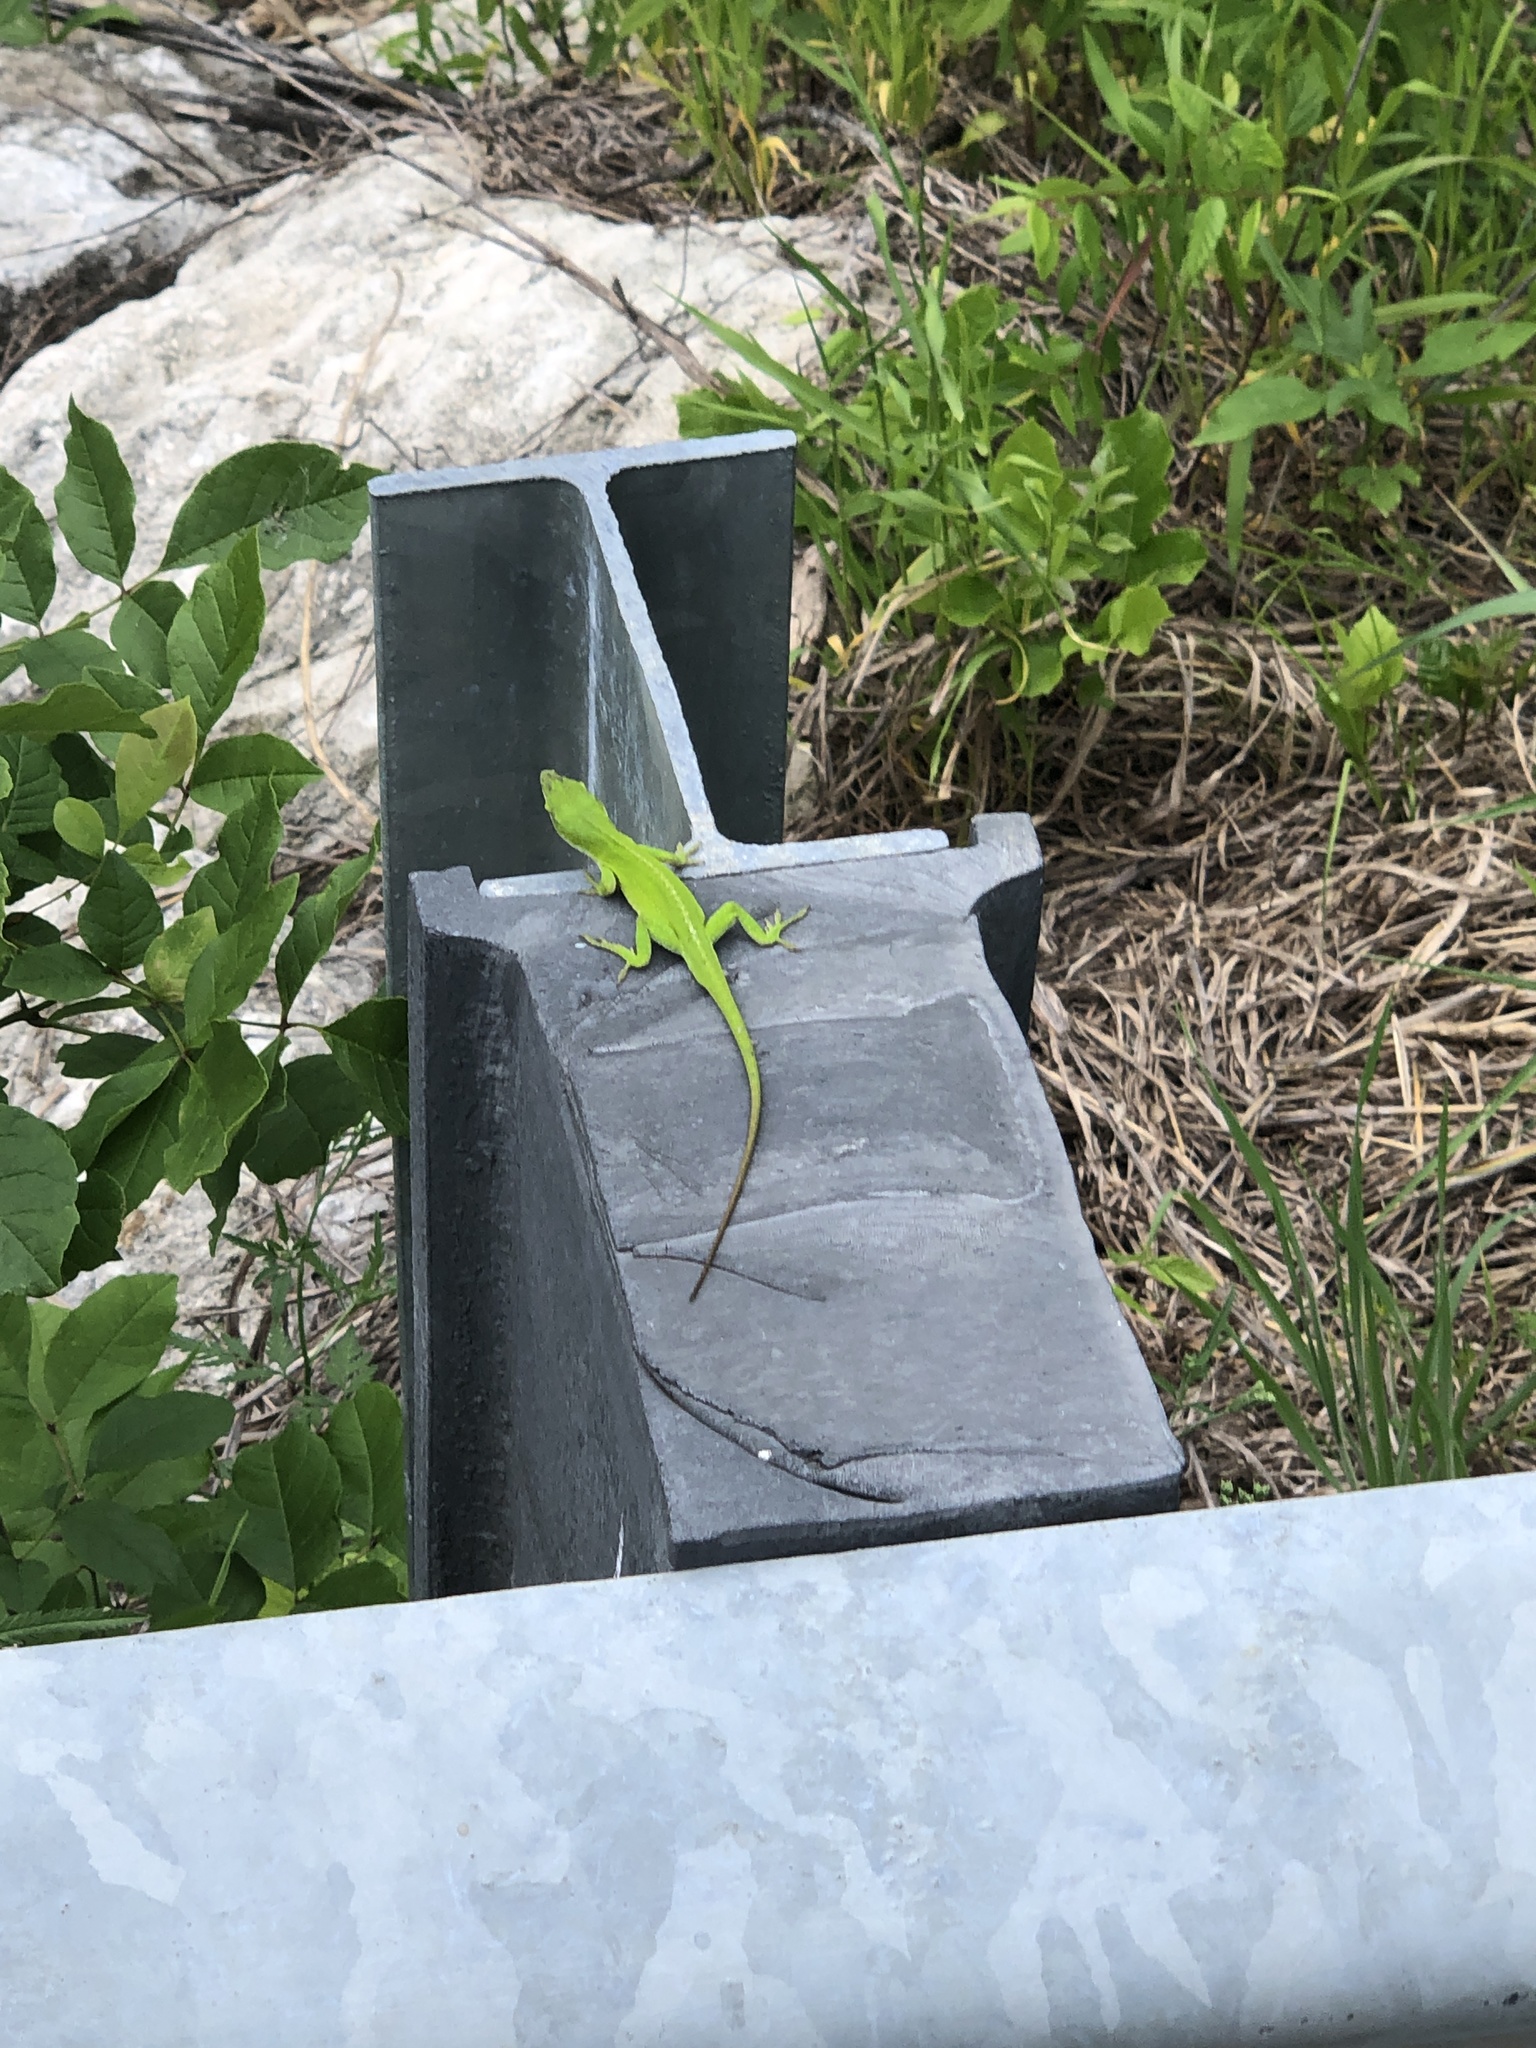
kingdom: Animalia
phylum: Chordata
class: Squamata
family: Dactyloidae
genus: Anolis
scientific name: Anolis carolinensis
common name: Green anole
